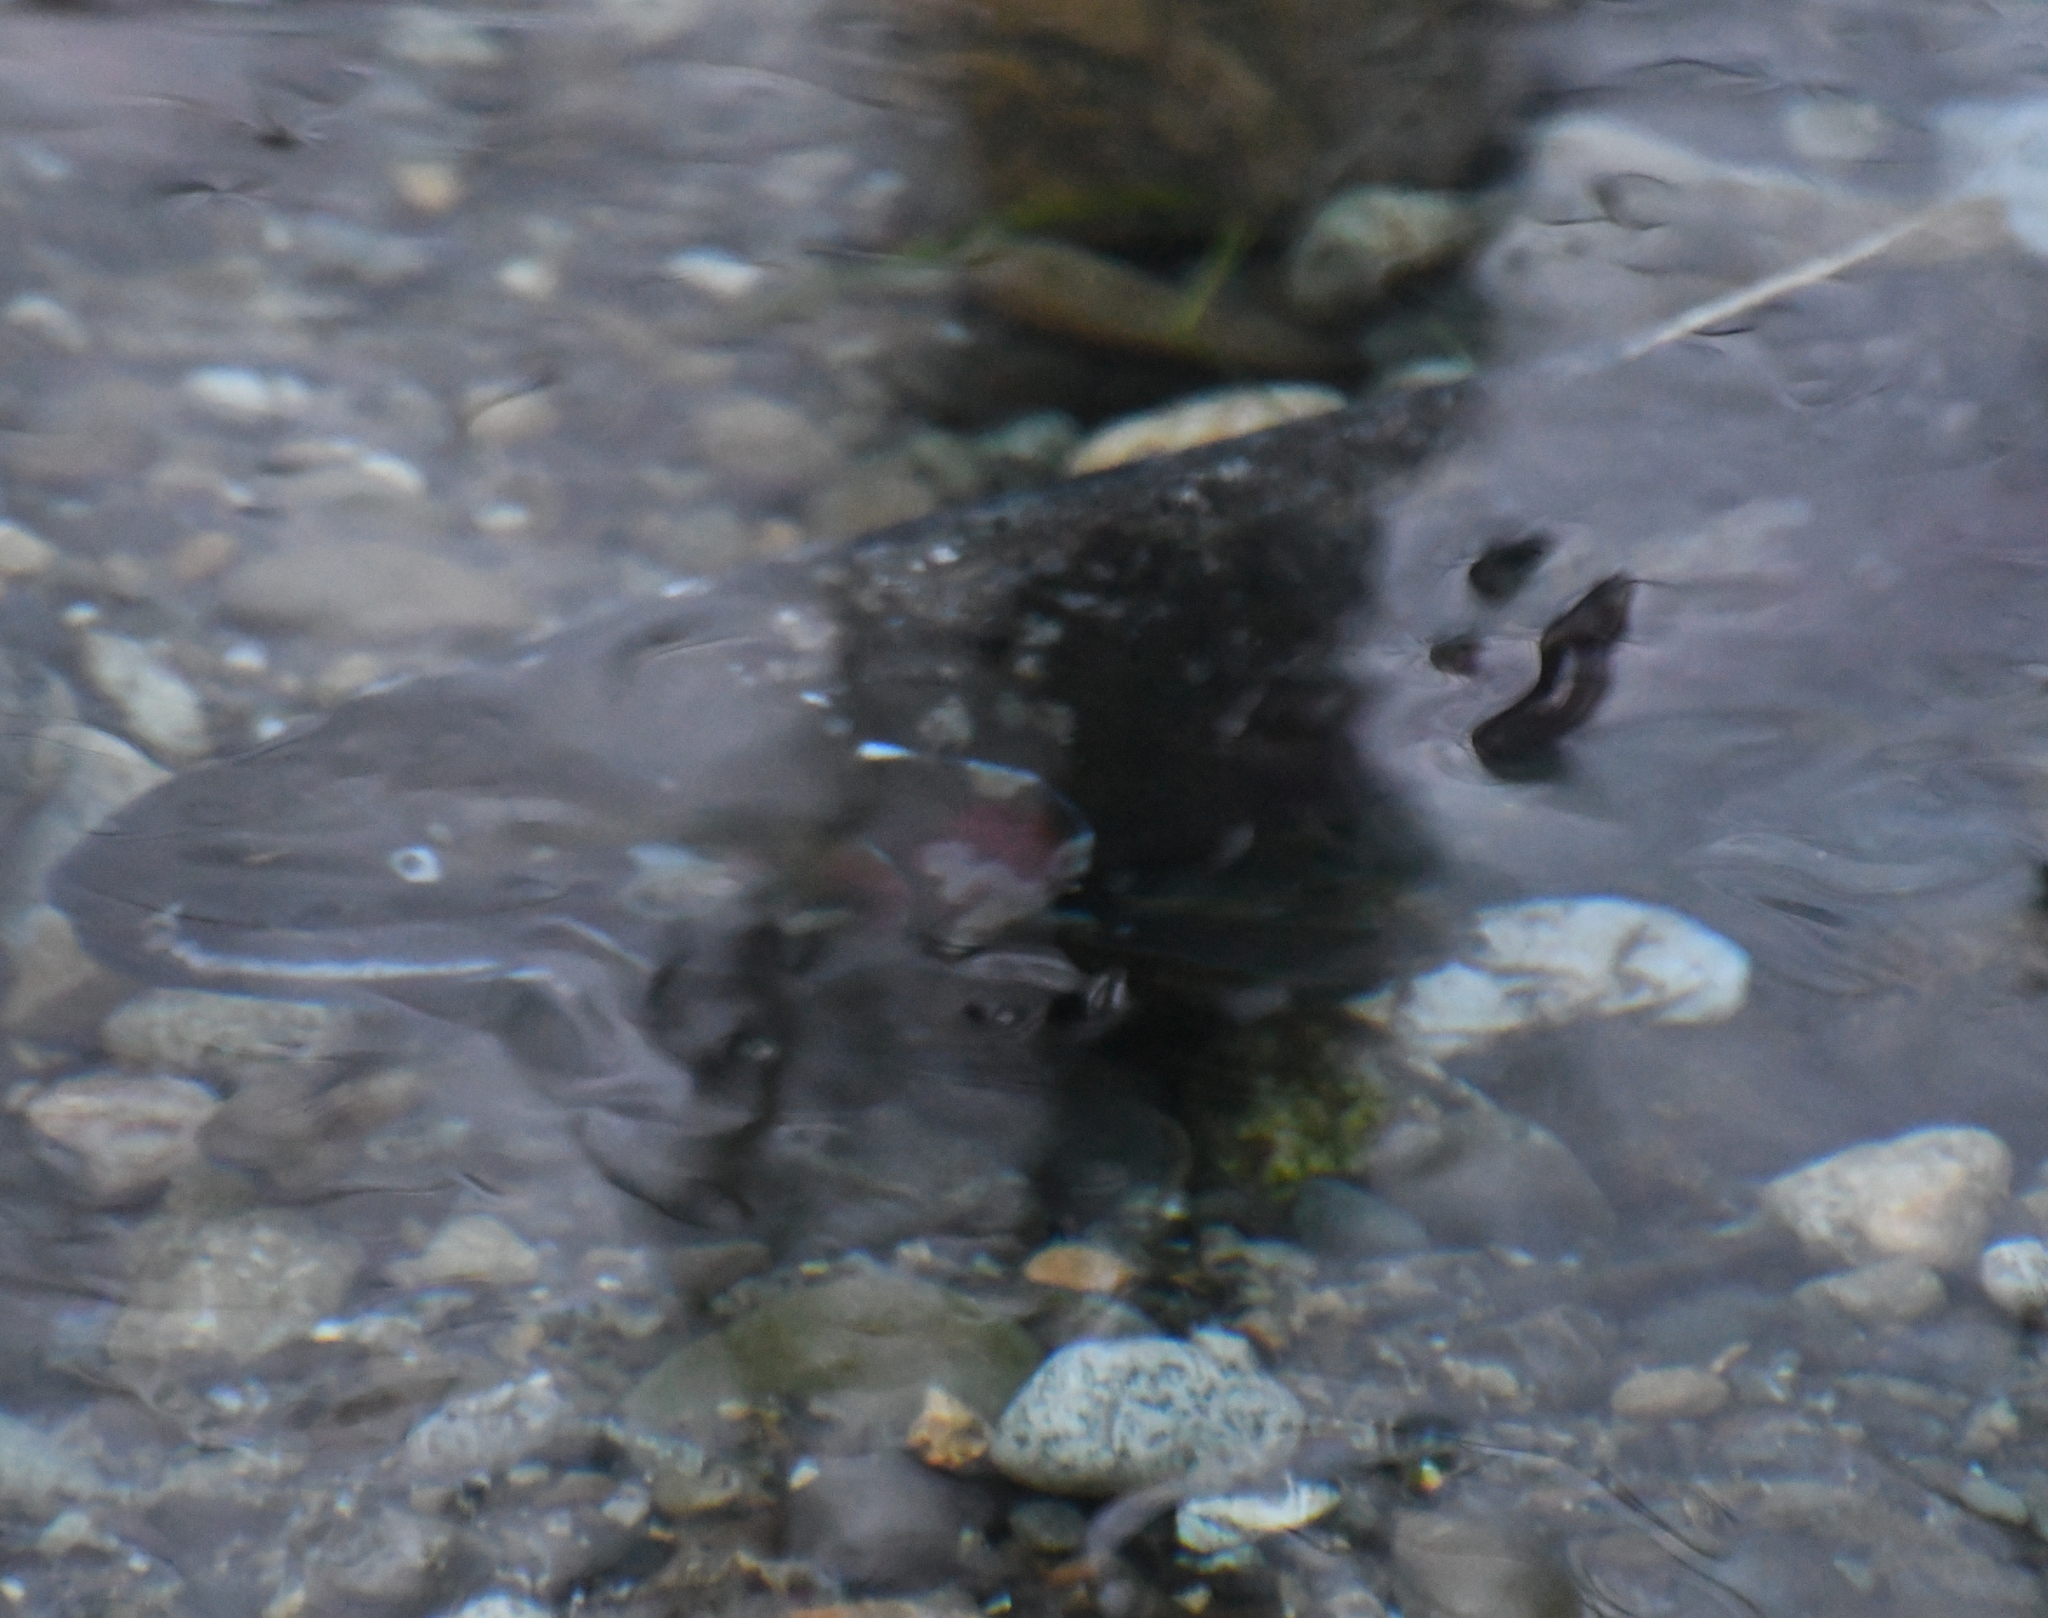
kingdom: Animalia
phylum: Chordata
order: Salmoniformes
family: Salmonidae
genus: Oncorhynchus
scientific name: Oncorhynchus kisutch
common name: Coho salmon
